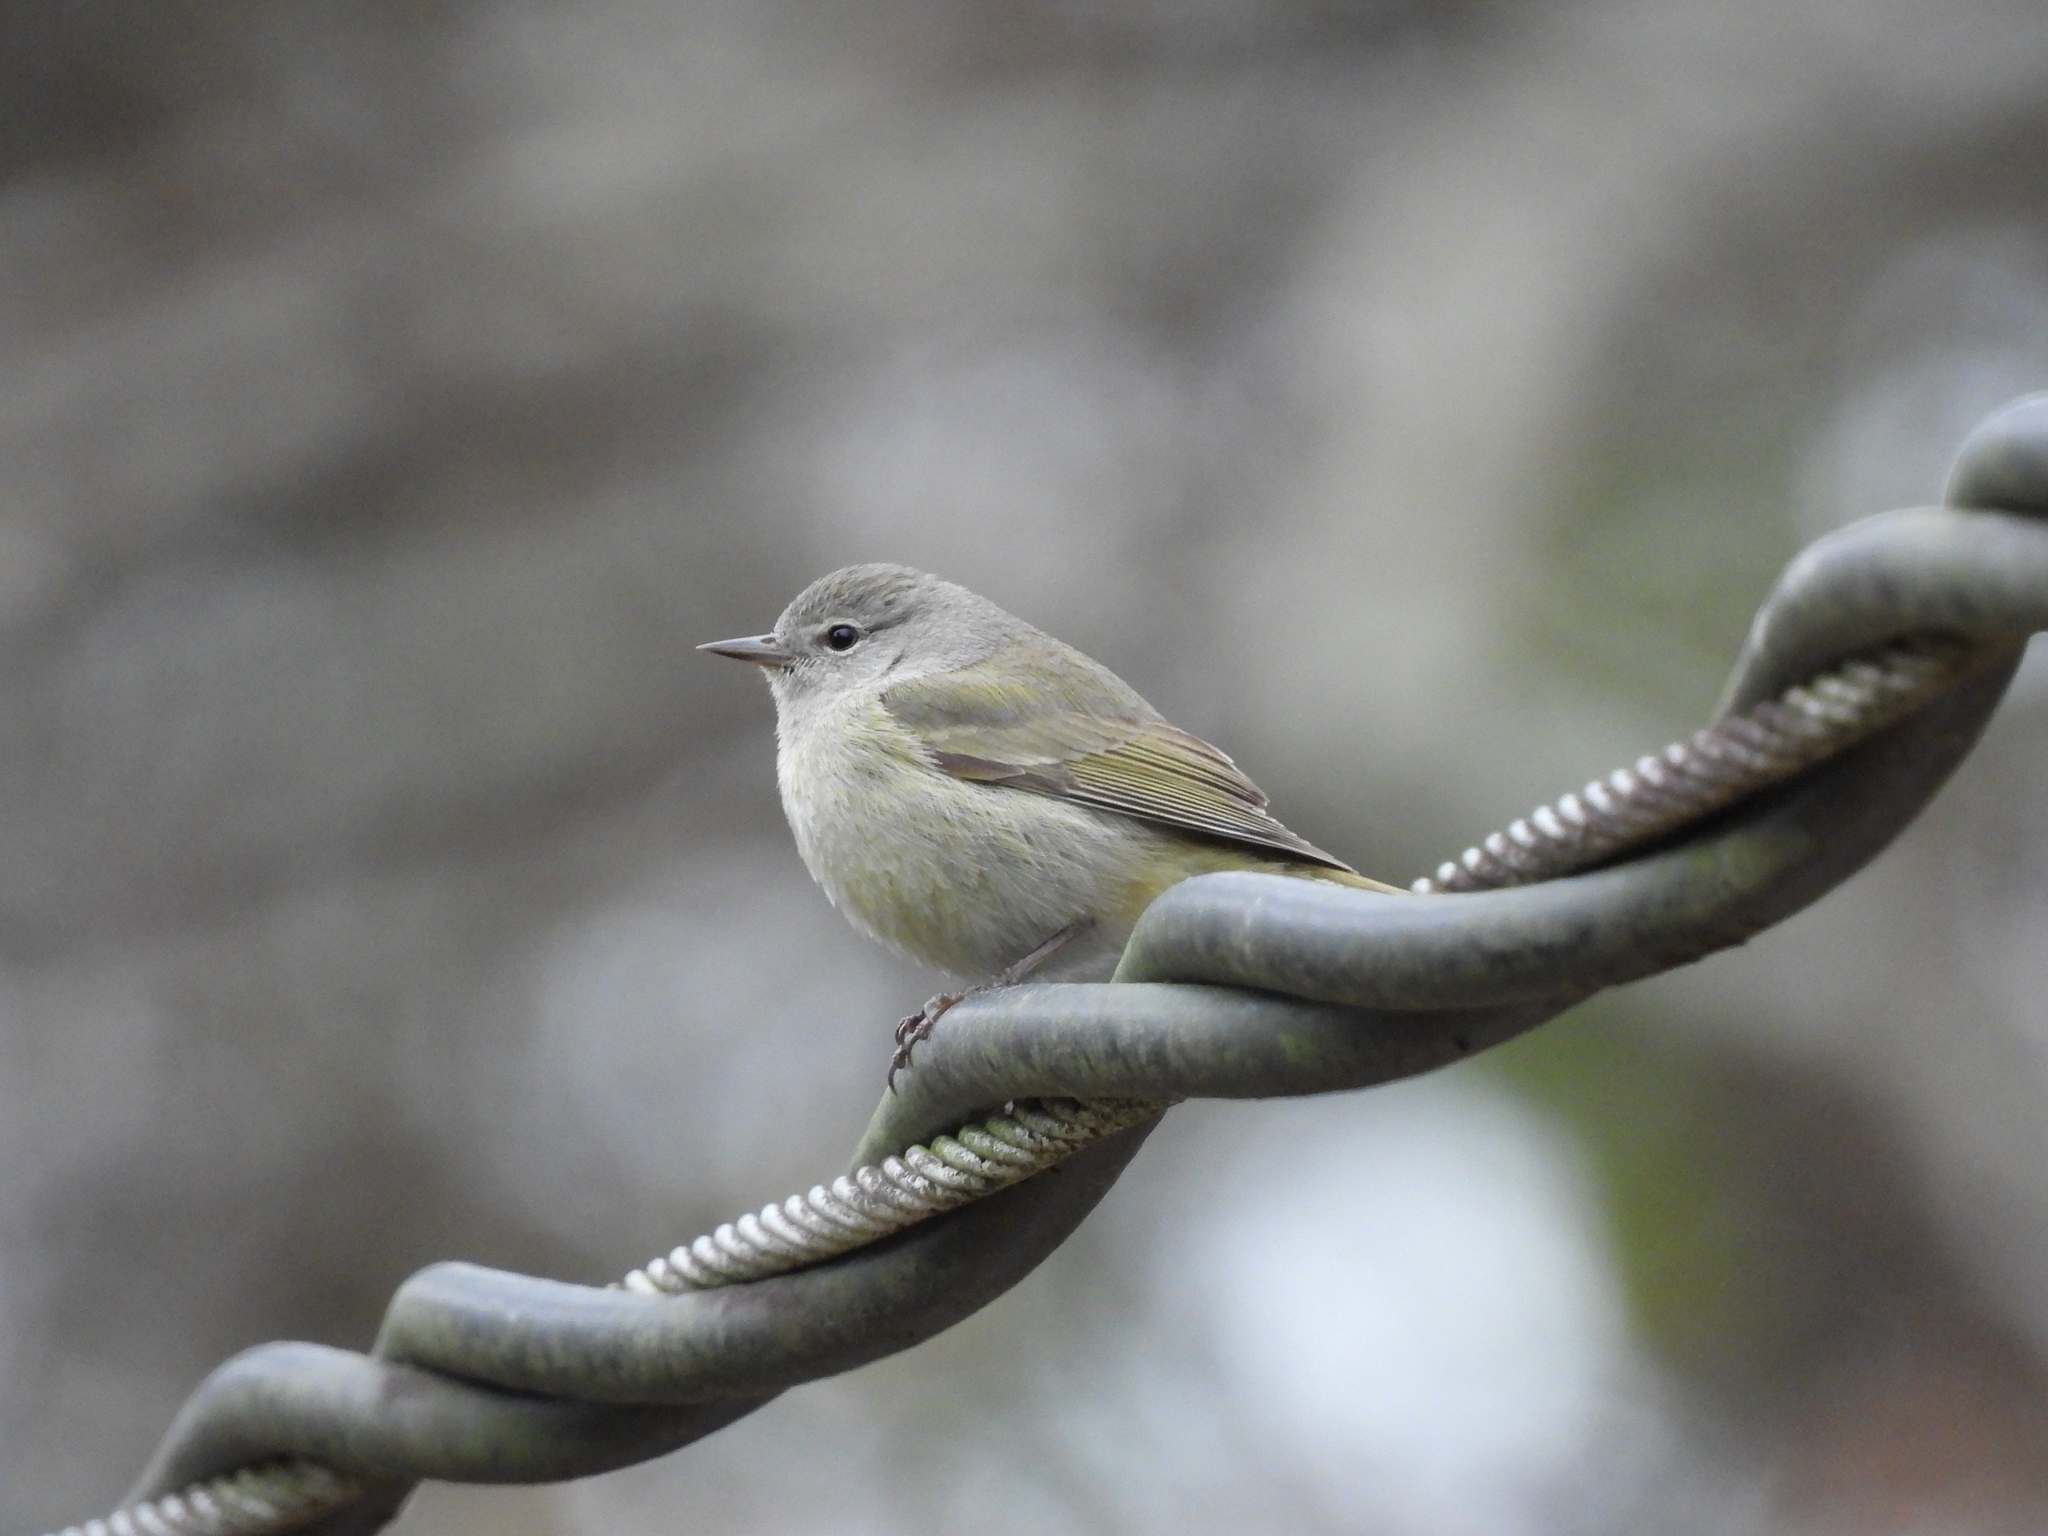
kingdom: Animalia
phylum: Chordata
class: Aves
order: Passeriformes
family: Parulidae
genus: Leiothlypis
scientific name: Leiothlypis celata
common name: Orange-crowned warbler
